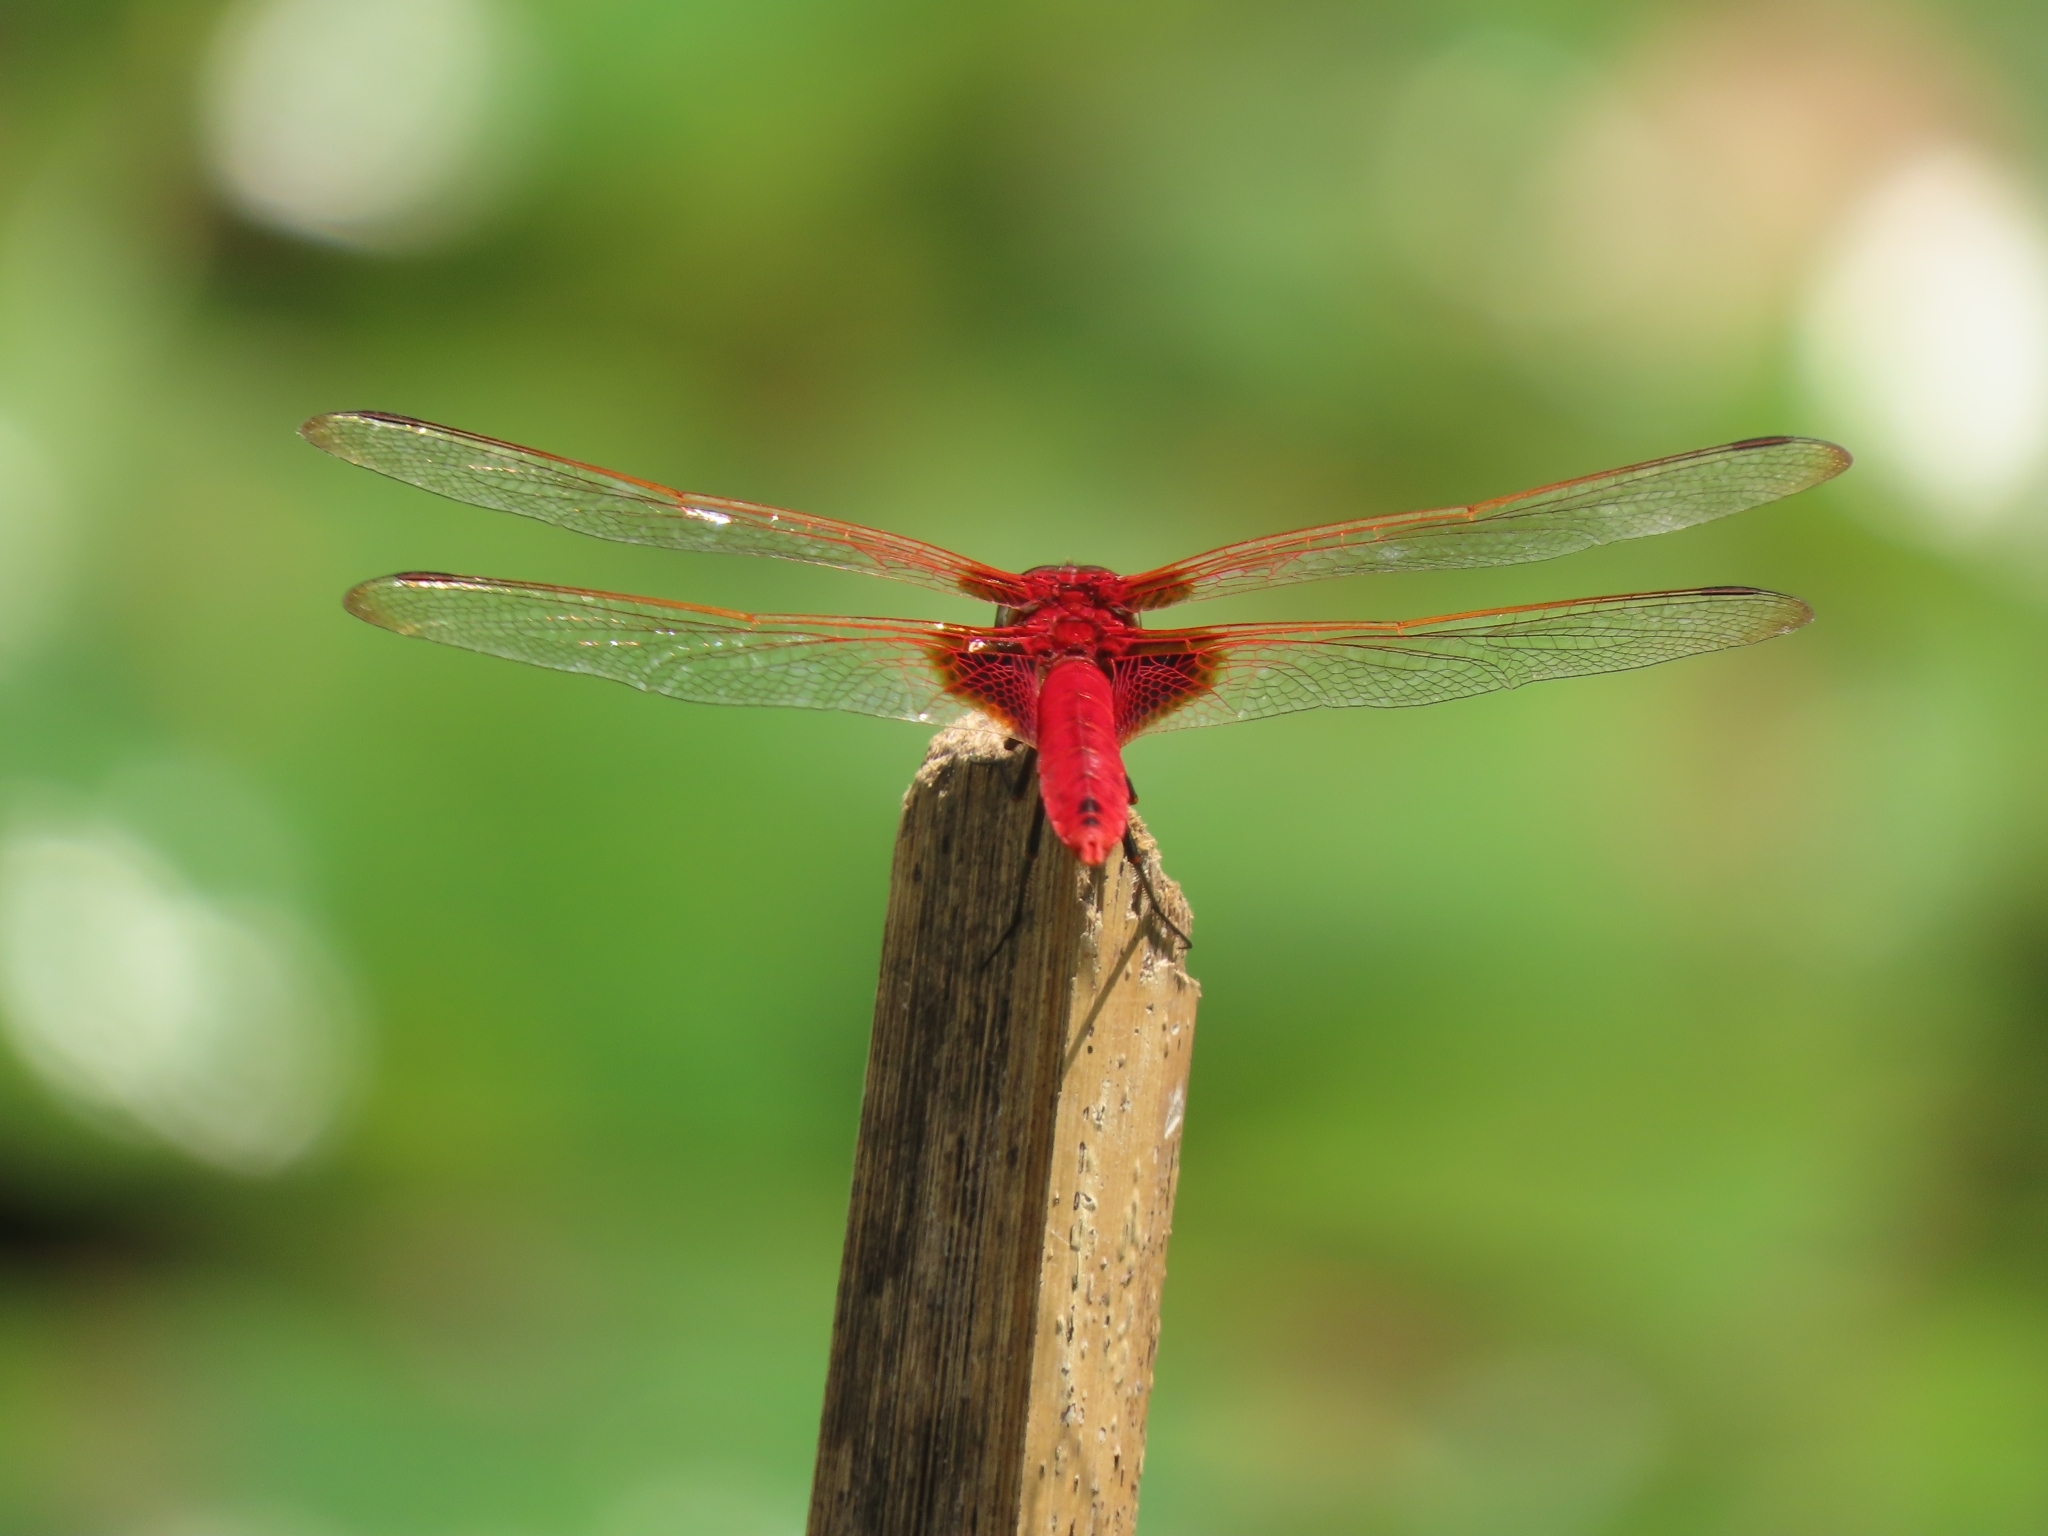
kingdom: Animalia
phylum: Arthropoda
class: Insecta
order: Odonata
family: Libellulidae
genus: Urothemis
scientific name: Urothemis signata
